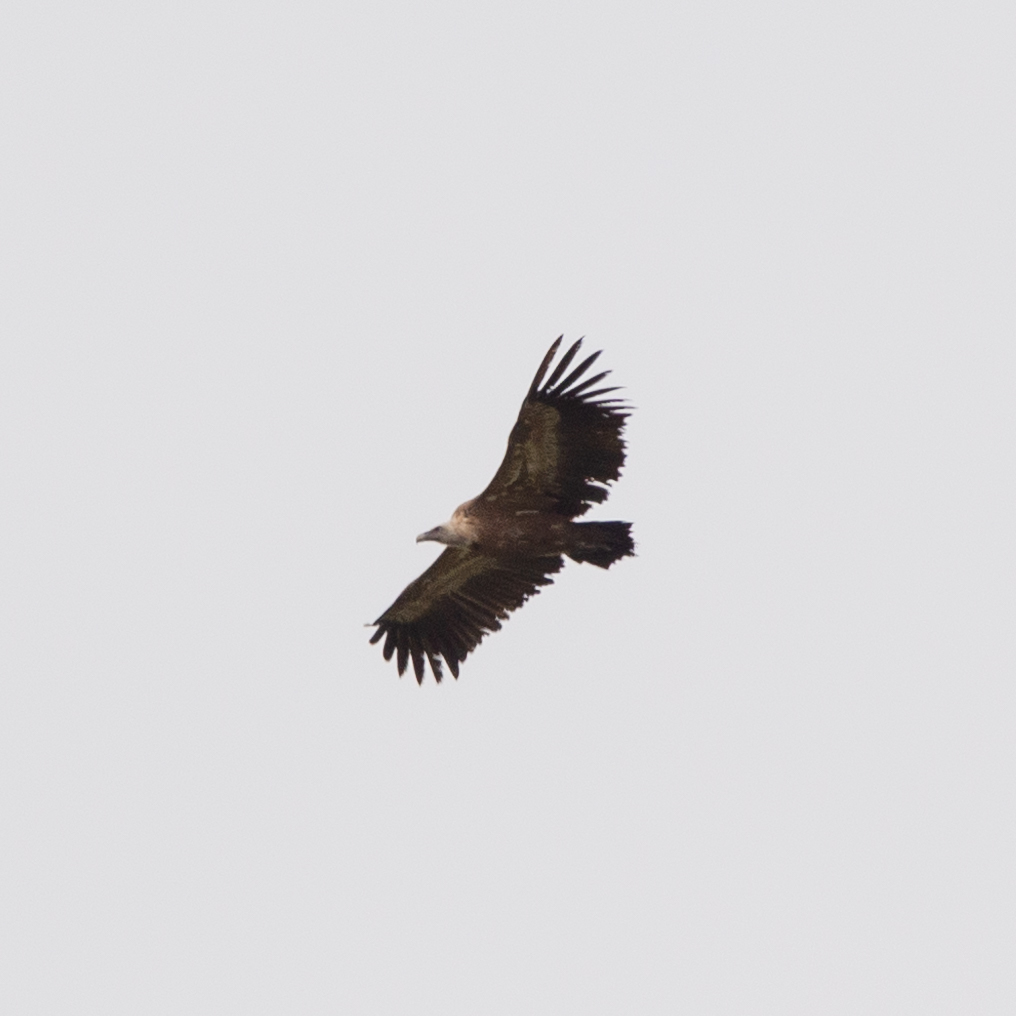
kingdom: Animalia
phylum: Chordata
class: Aves
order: Accipitriformes
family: Accipitridae
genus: Gyps
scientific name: Gyps fulvus
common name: Griffon vulture
